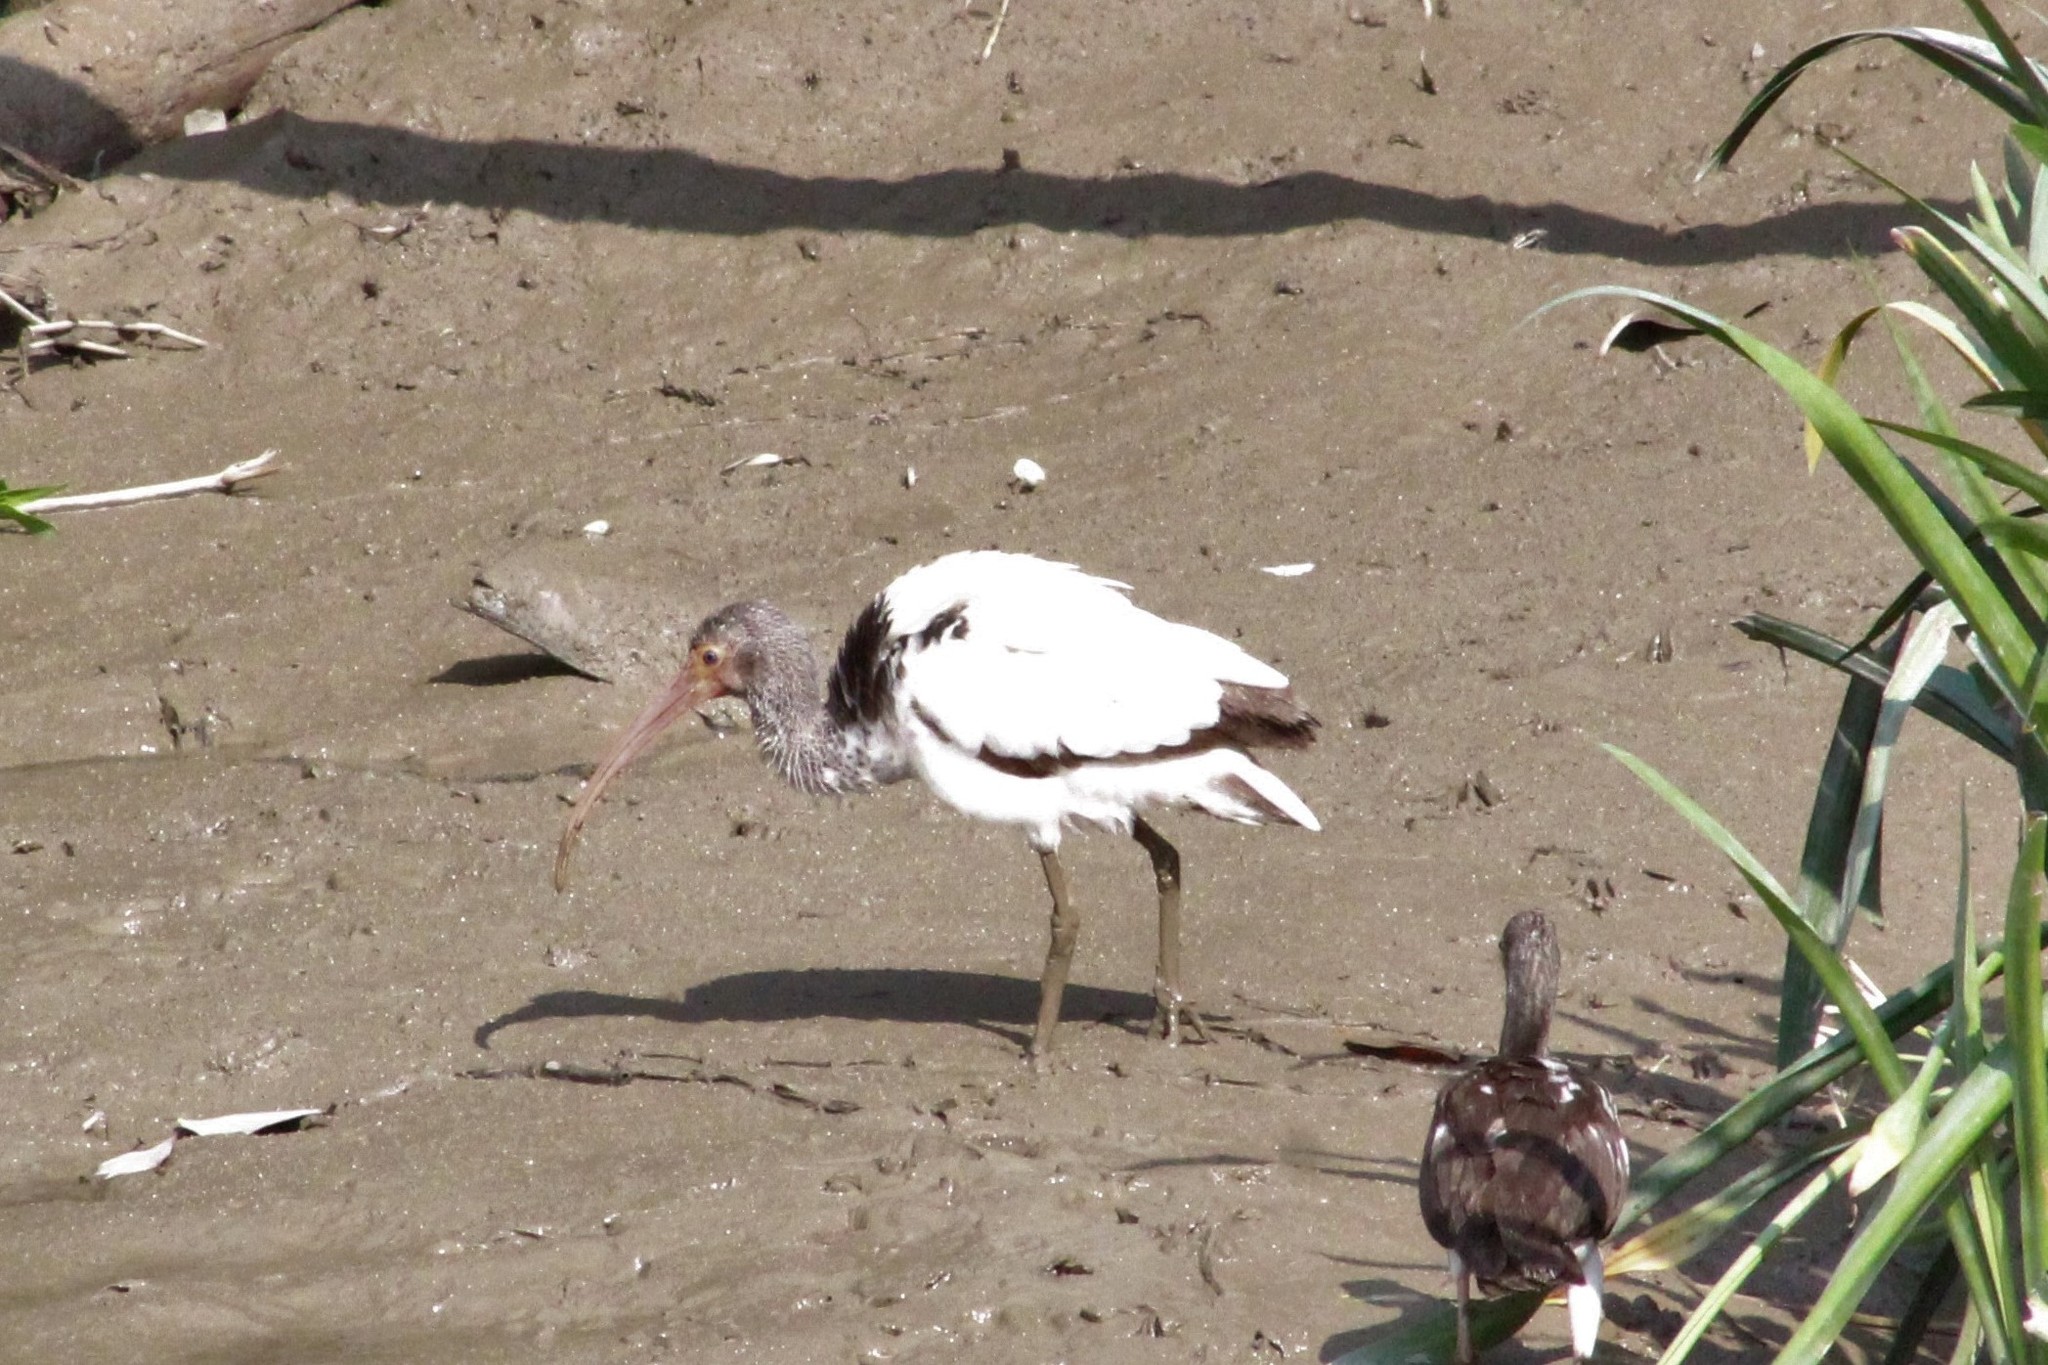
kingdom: Animalia
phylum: Chordata
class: Aves
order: Pelecaniformes
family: Threskiornithidae
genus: Eudocimus
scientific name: Eudocimus albus
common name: White ibis
